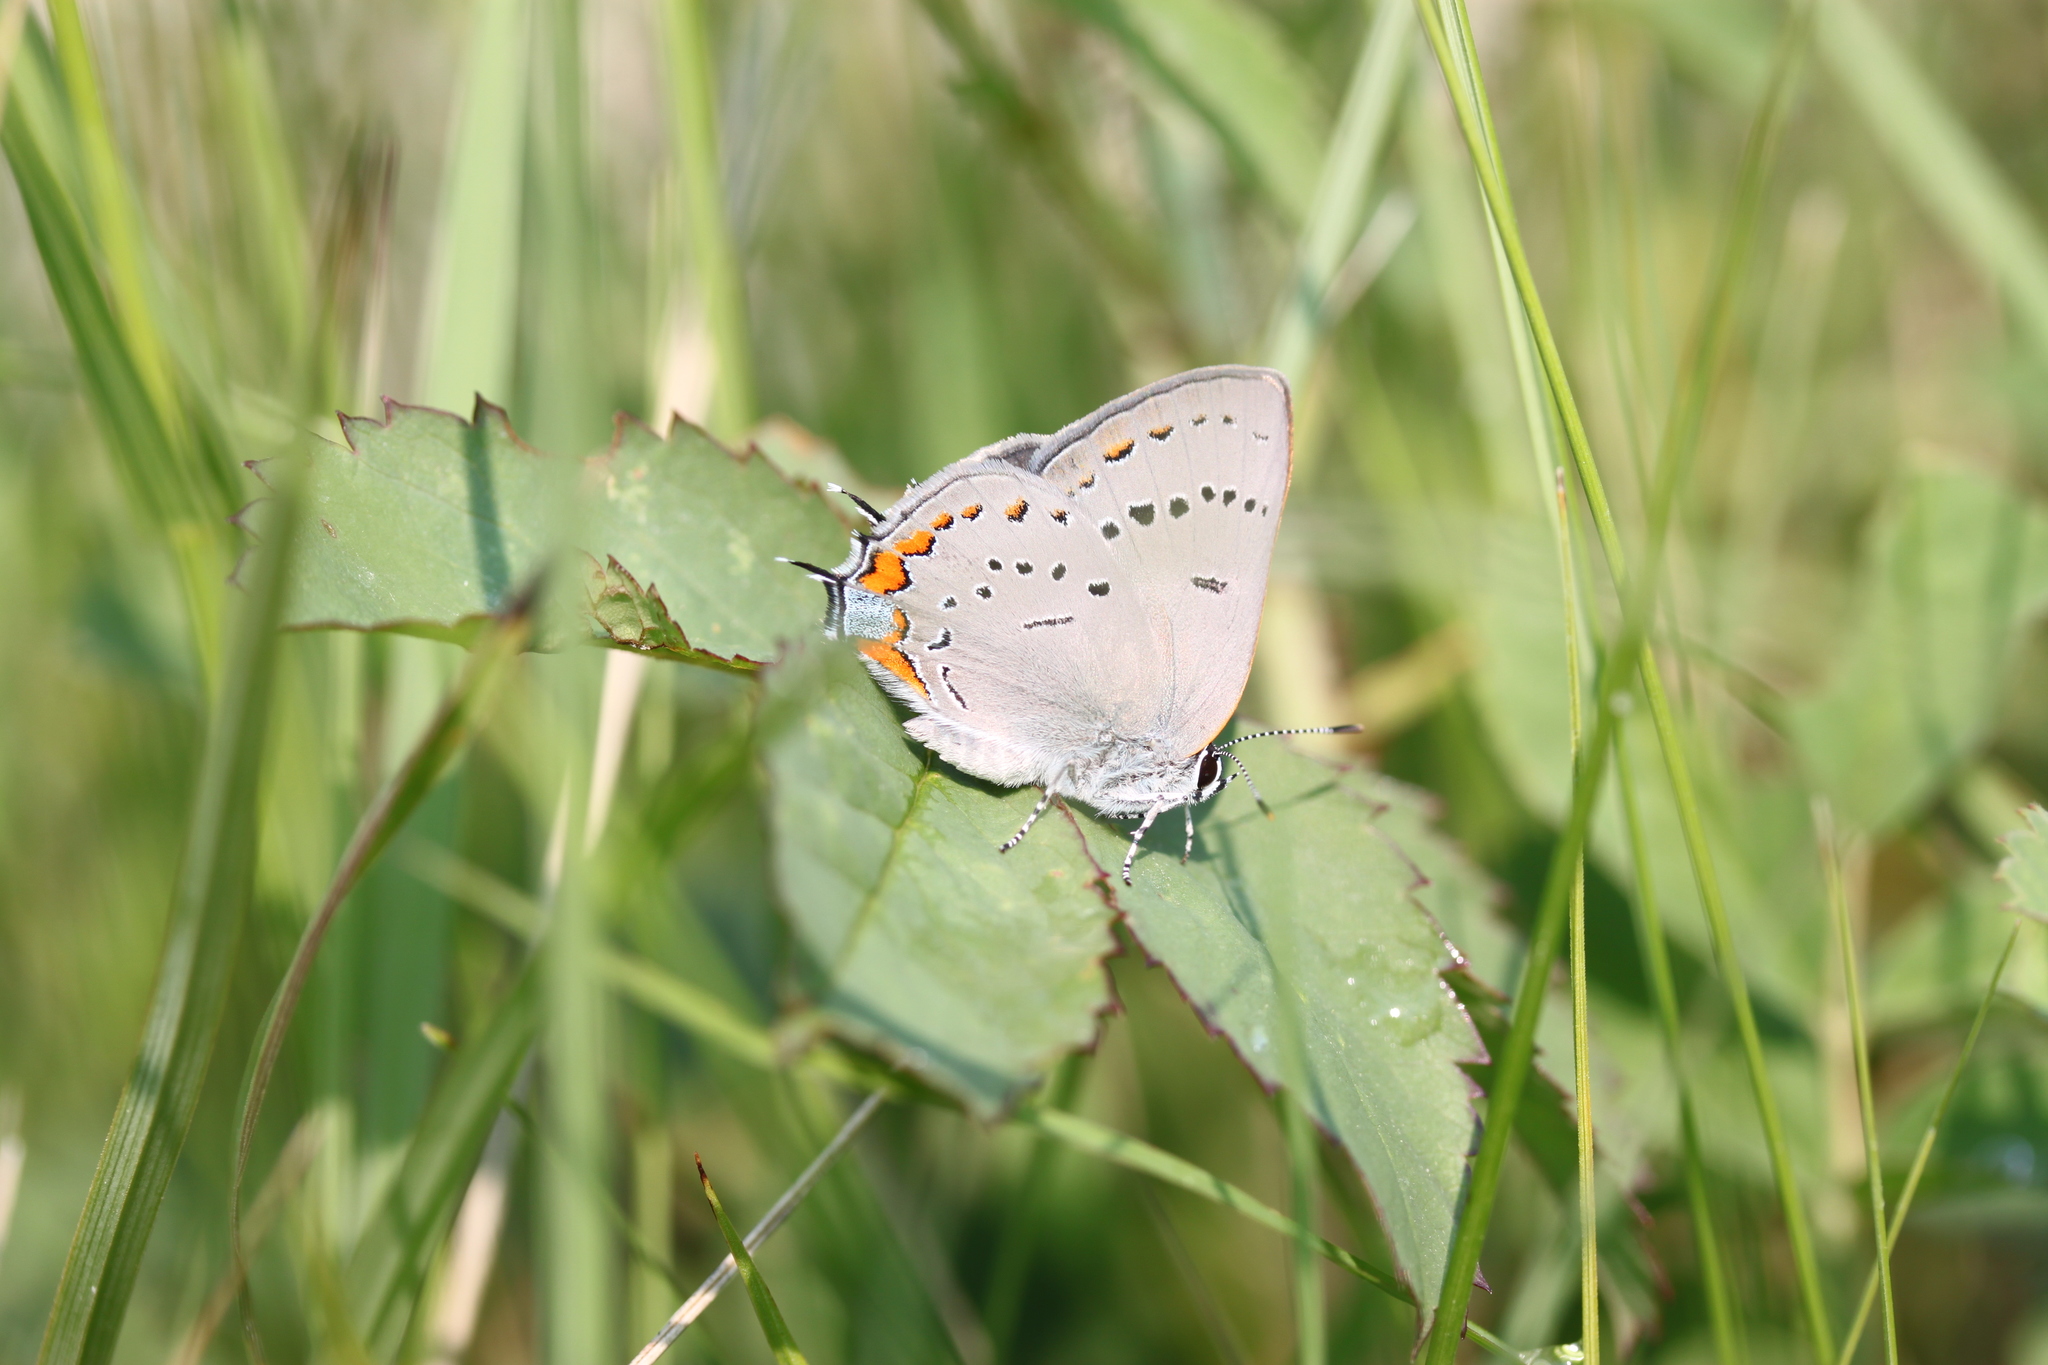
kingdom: Animalia
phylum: Arthropoda
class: Insecta
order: Lepidoptera
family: Lycaenidae
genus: Strymon
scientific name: Strymon acadica
